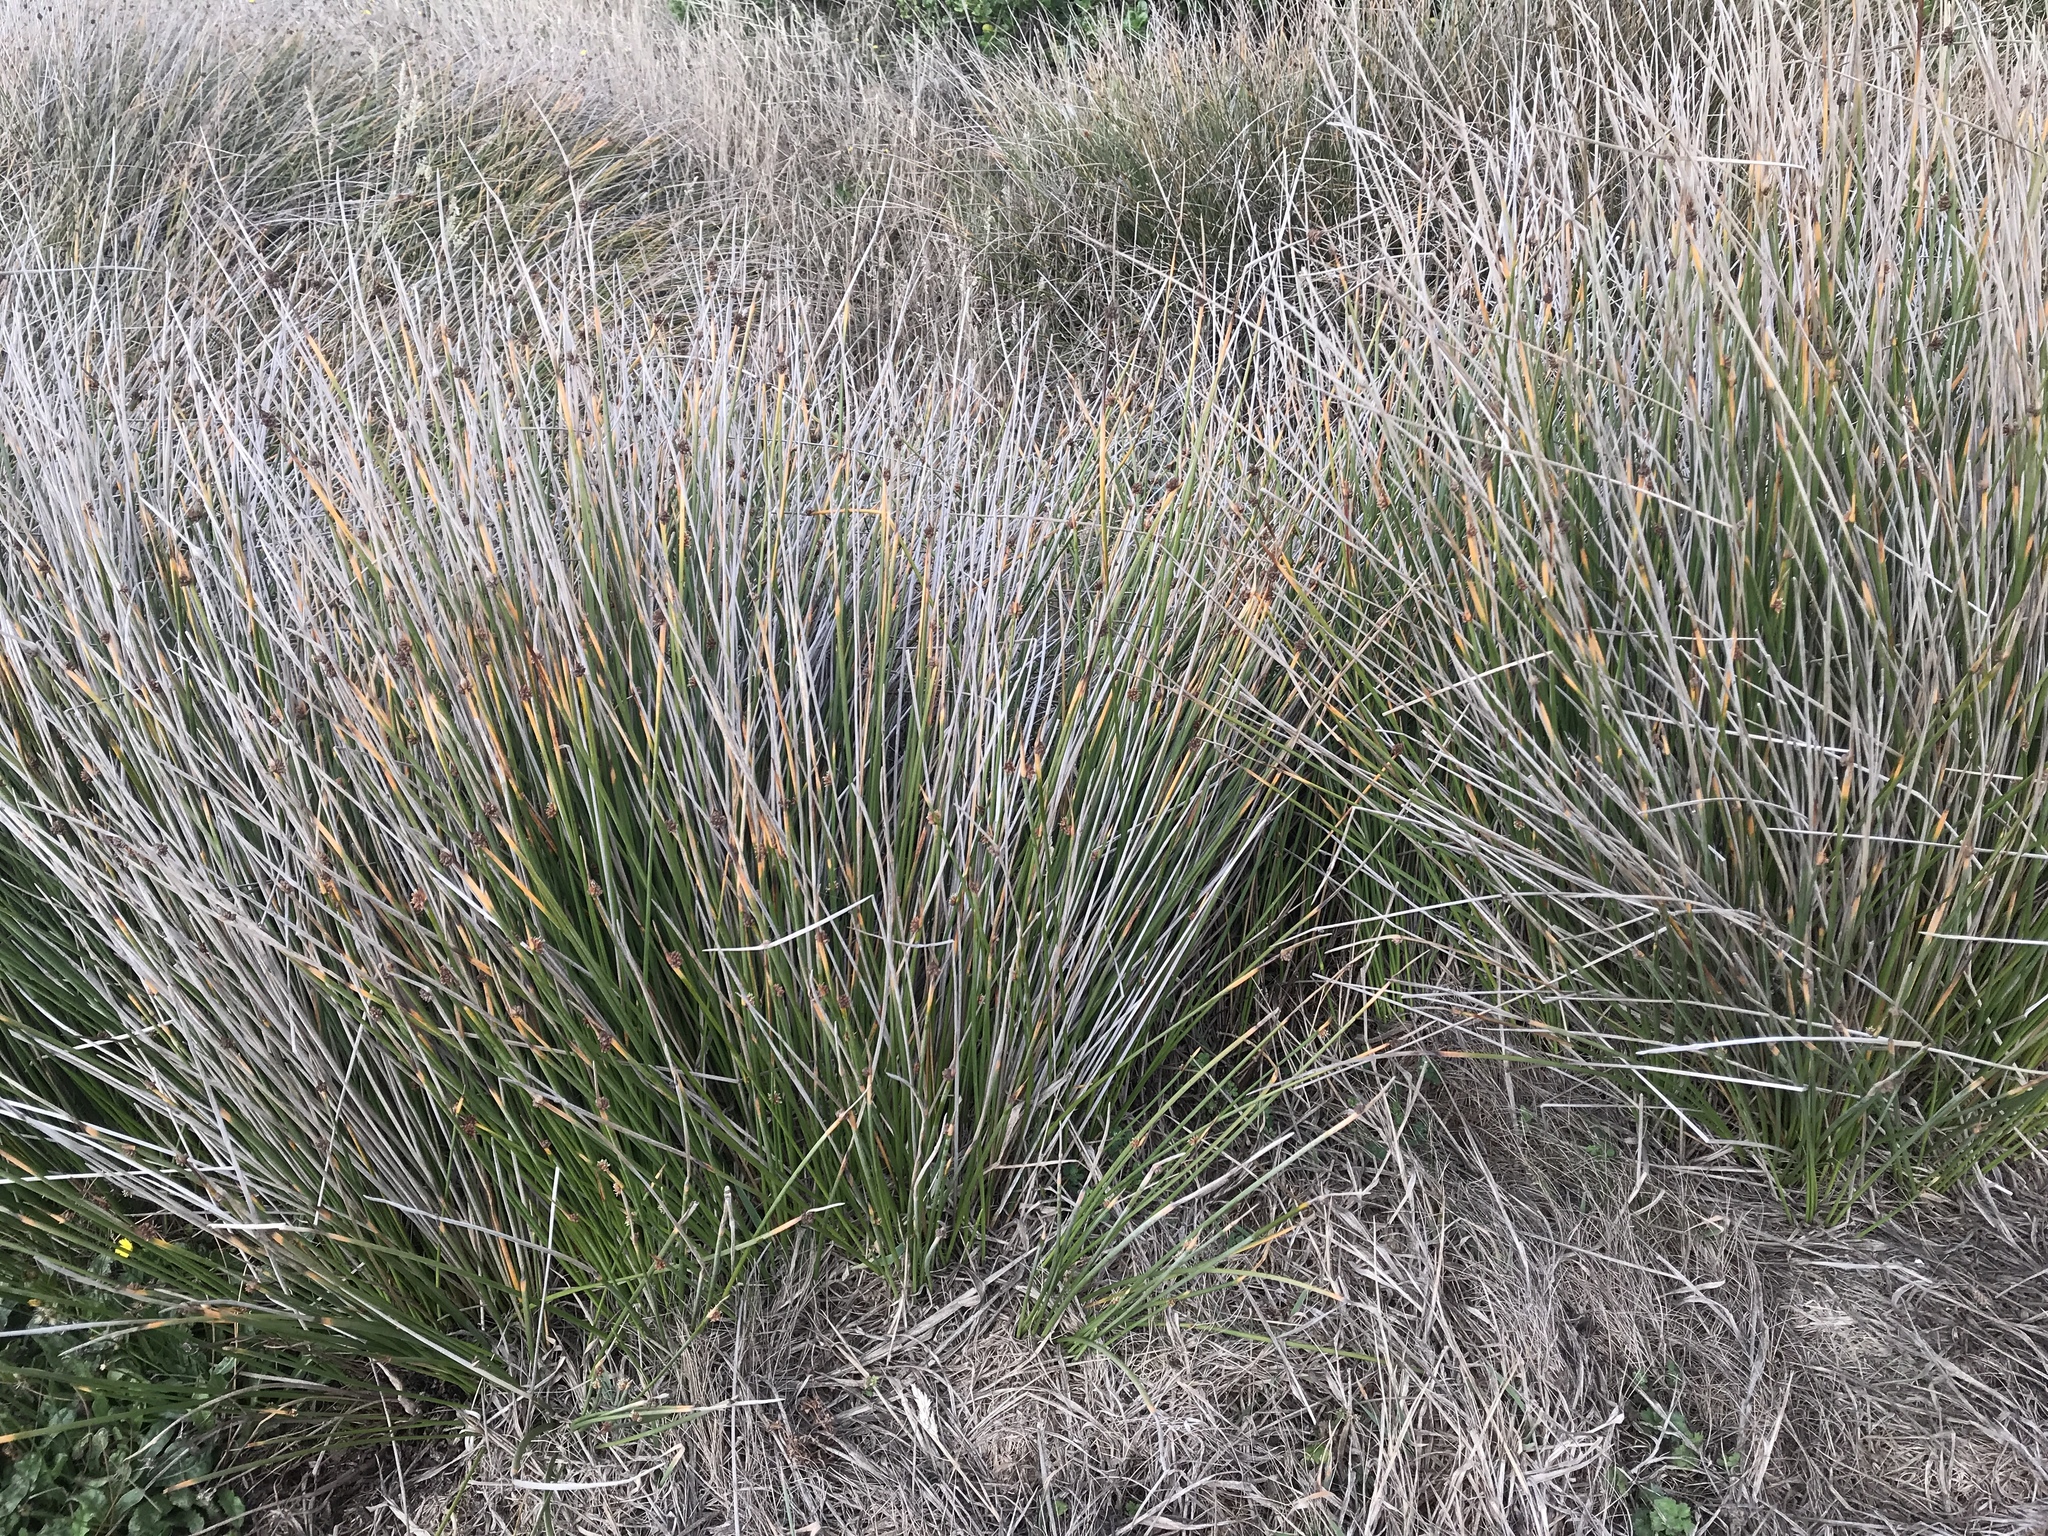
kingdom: Plantae
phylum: Tracheophyta
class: Liliopsida
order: Poales
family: Cyperaceae
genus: Ficinia
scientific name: Ficinia nodosa
